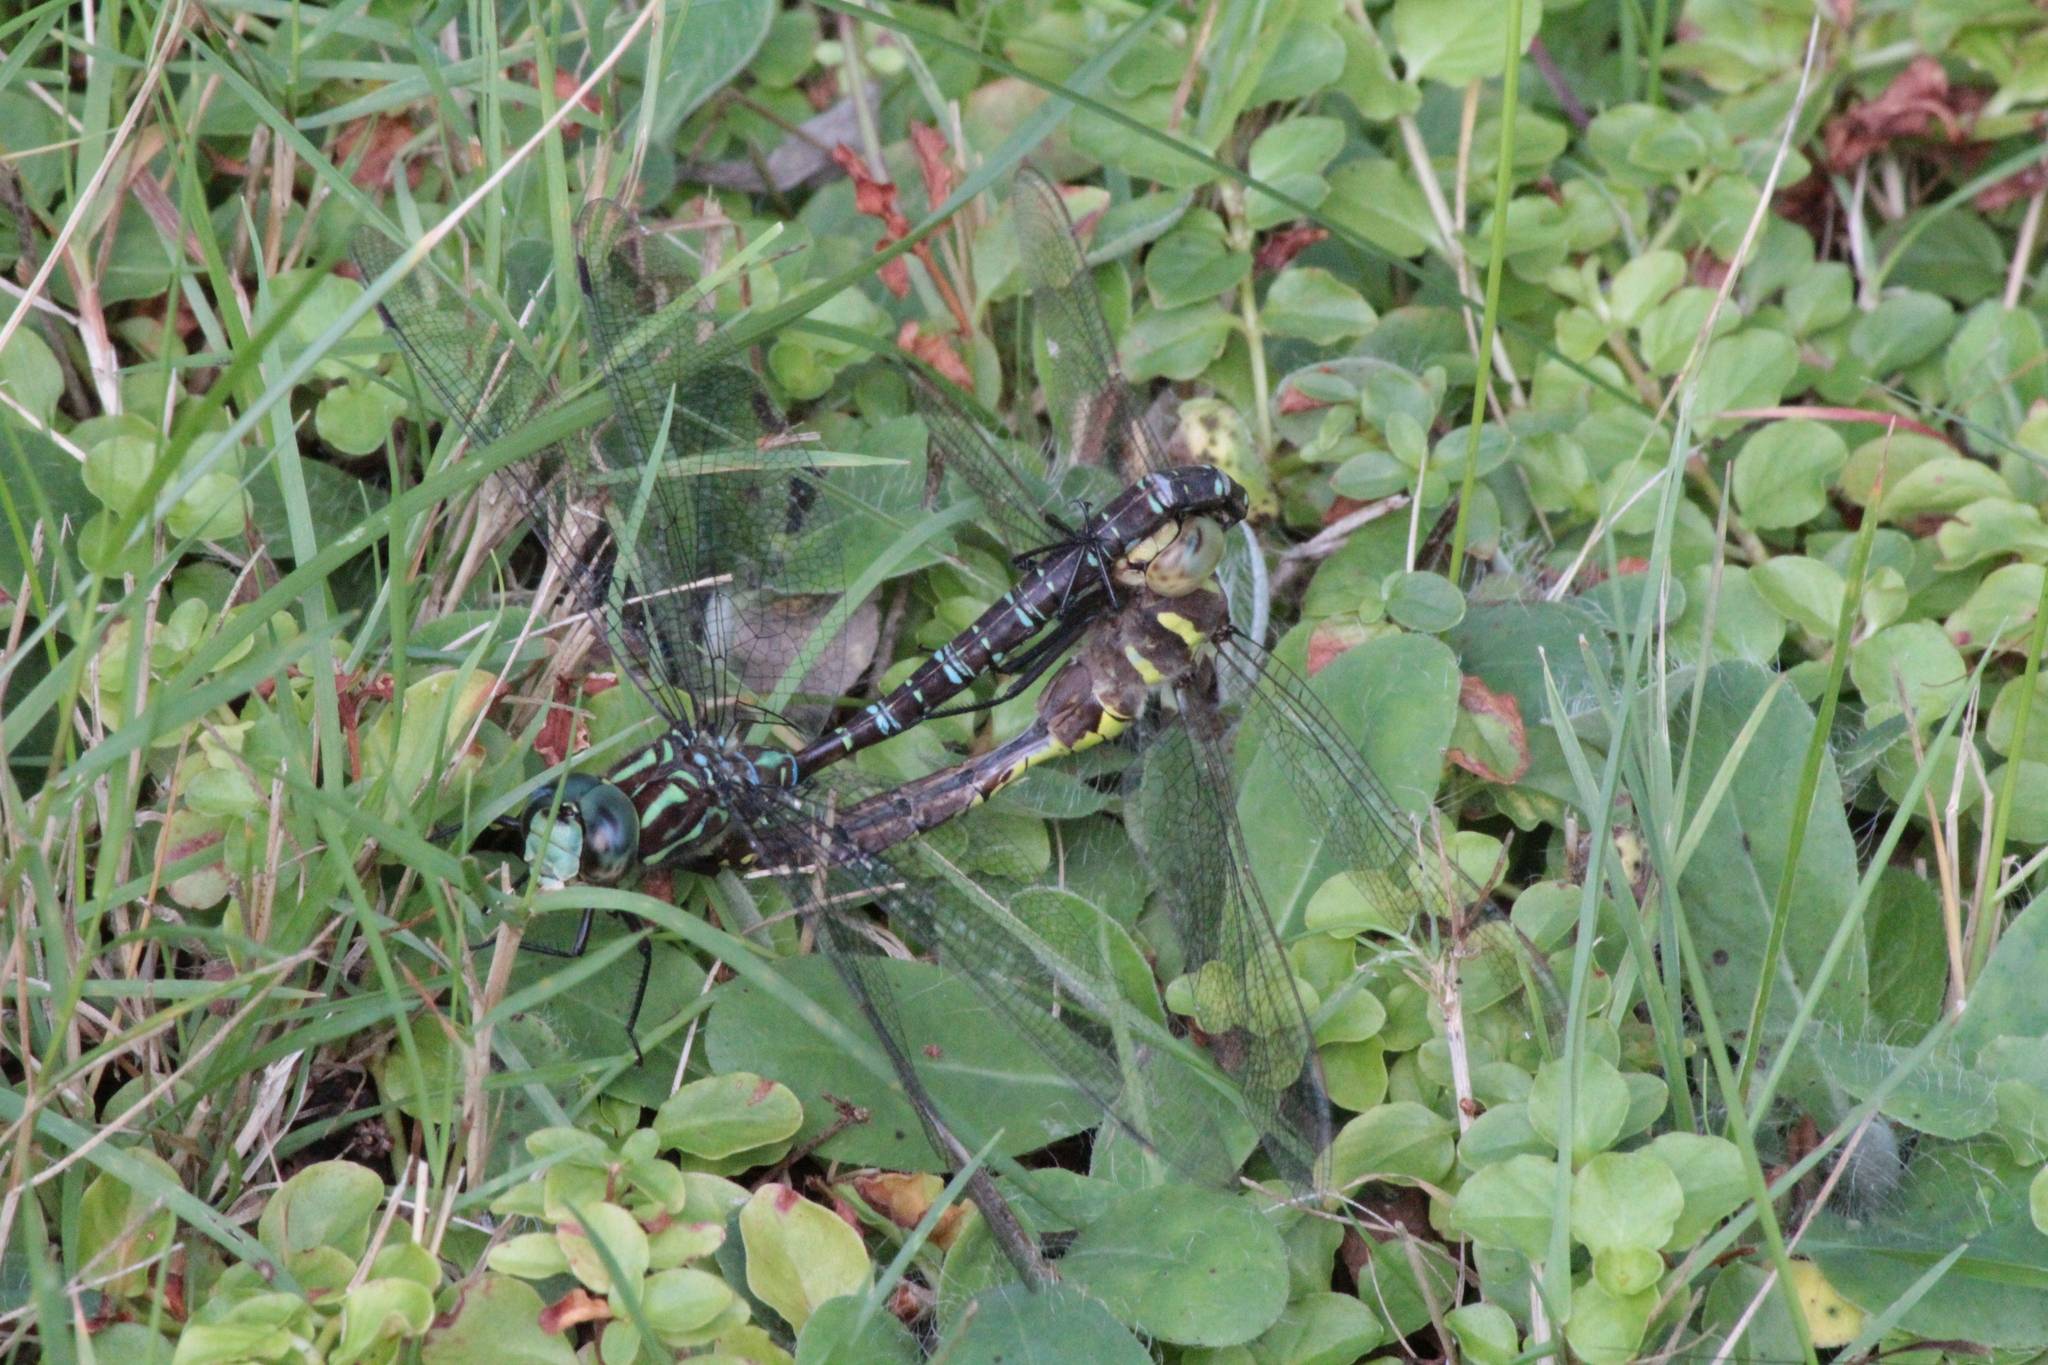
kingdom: Animalia
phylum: Arthropoda
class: Insecta
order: Odonata
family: Aeshnidae
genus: Aeshna
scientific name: Aeshna umbrosa
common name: Shadow darner
